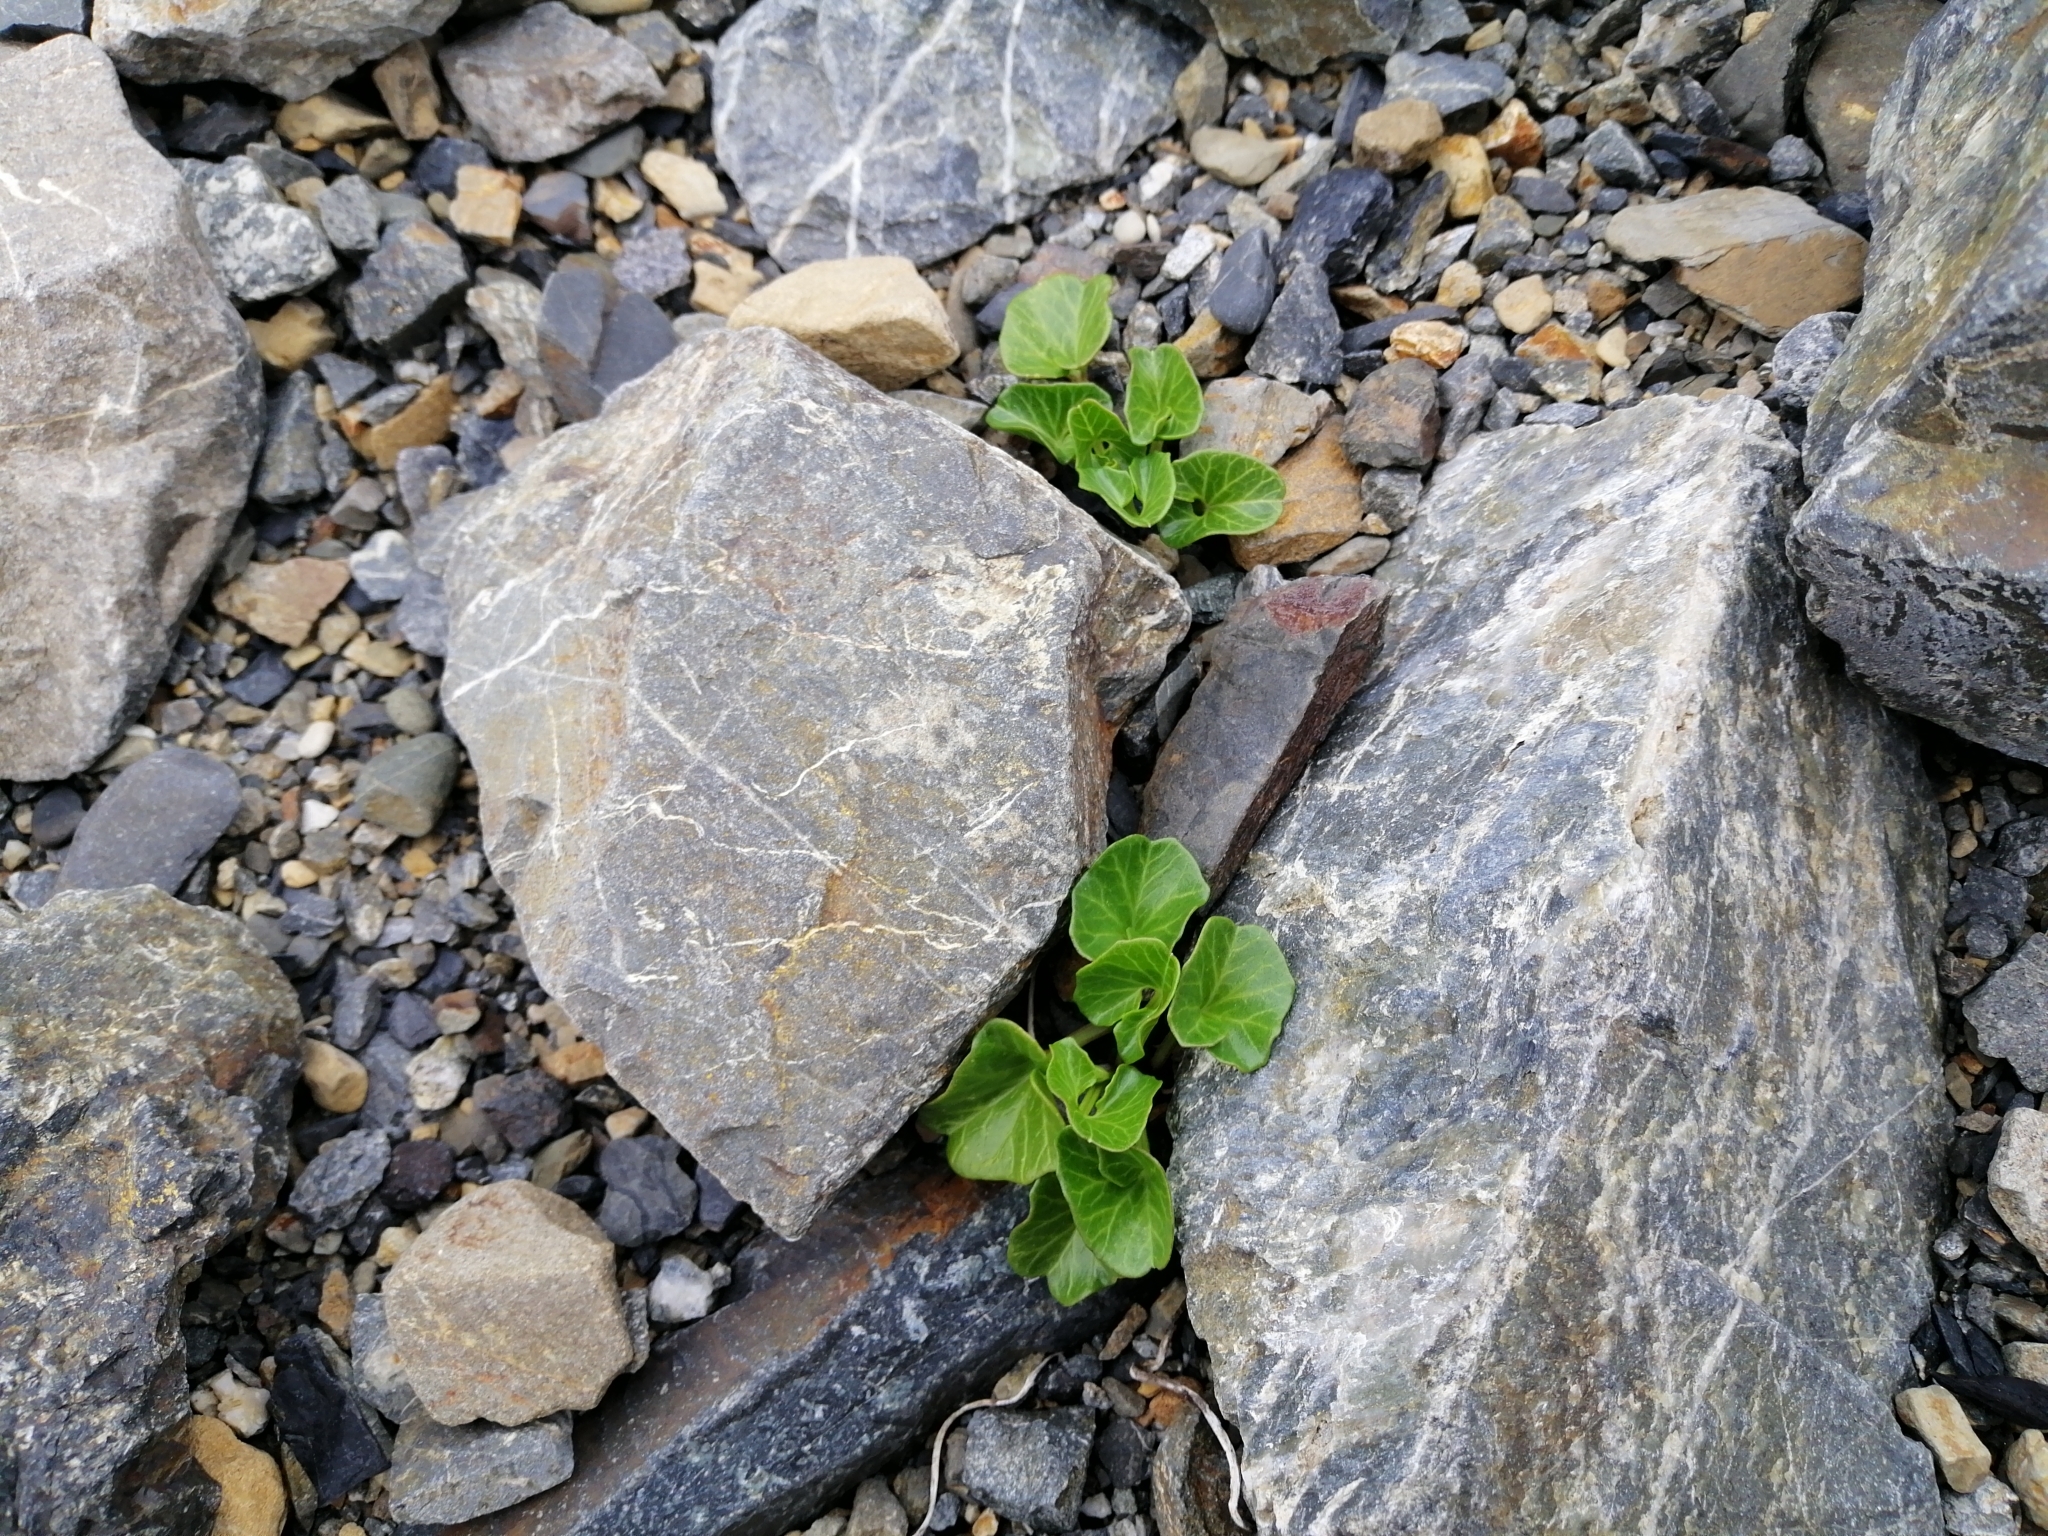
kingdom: Plantae
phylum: Tracheophyta
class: Magnoliopsida
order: Solanales
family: Convolvulaceae
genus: Calystegia
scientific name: Calystegia soldanella
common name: Sea bindweed
